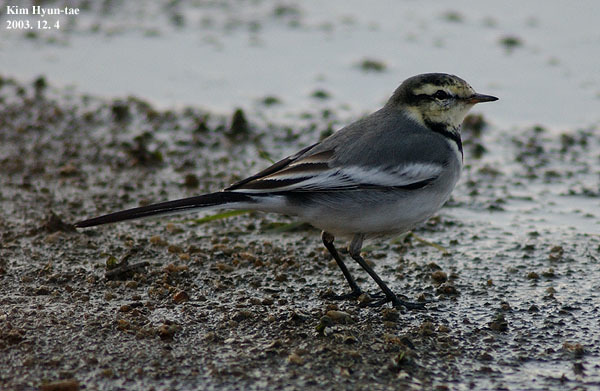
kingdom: Animalia
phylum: Chordata
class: Aves
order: Passeriformes
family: Motacillidae
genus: Motacilla
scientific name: Motacilla alba
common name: White wagtail
